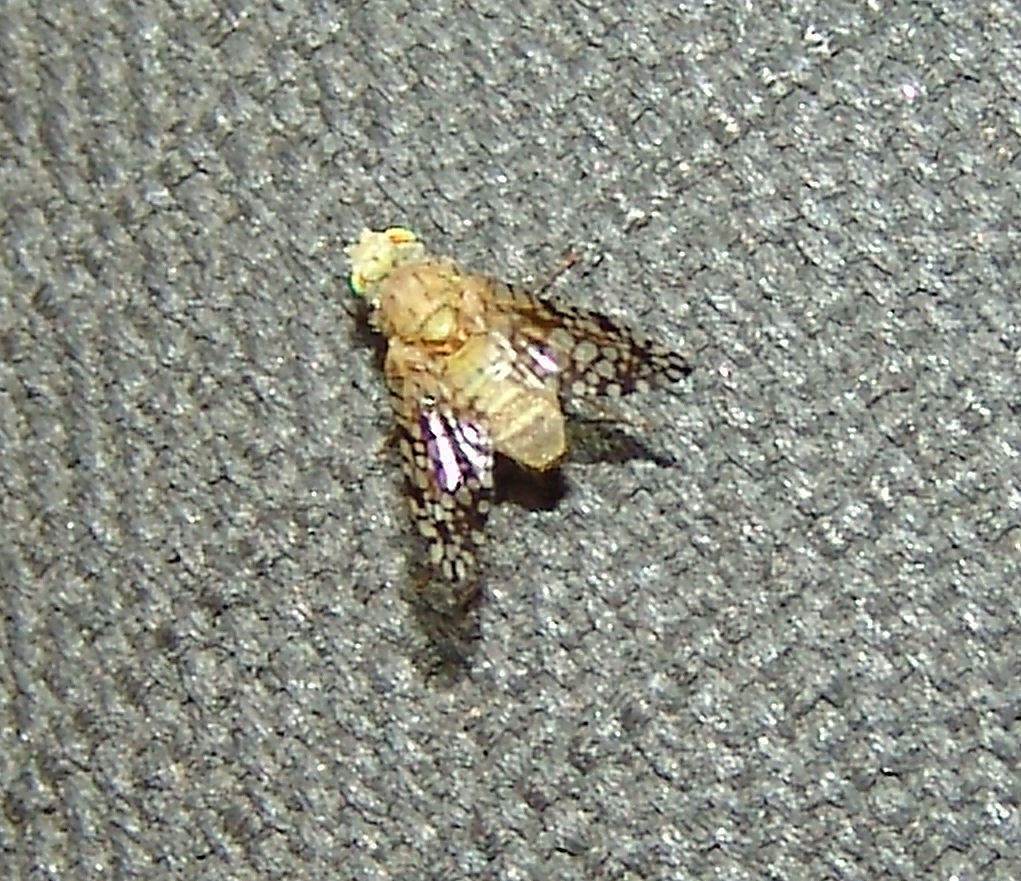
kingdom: Animalia
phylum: Arthropoda
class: Insecta
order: Diptera
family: Tephritidae
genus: Euaresta
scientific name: Euaresta aequalis
